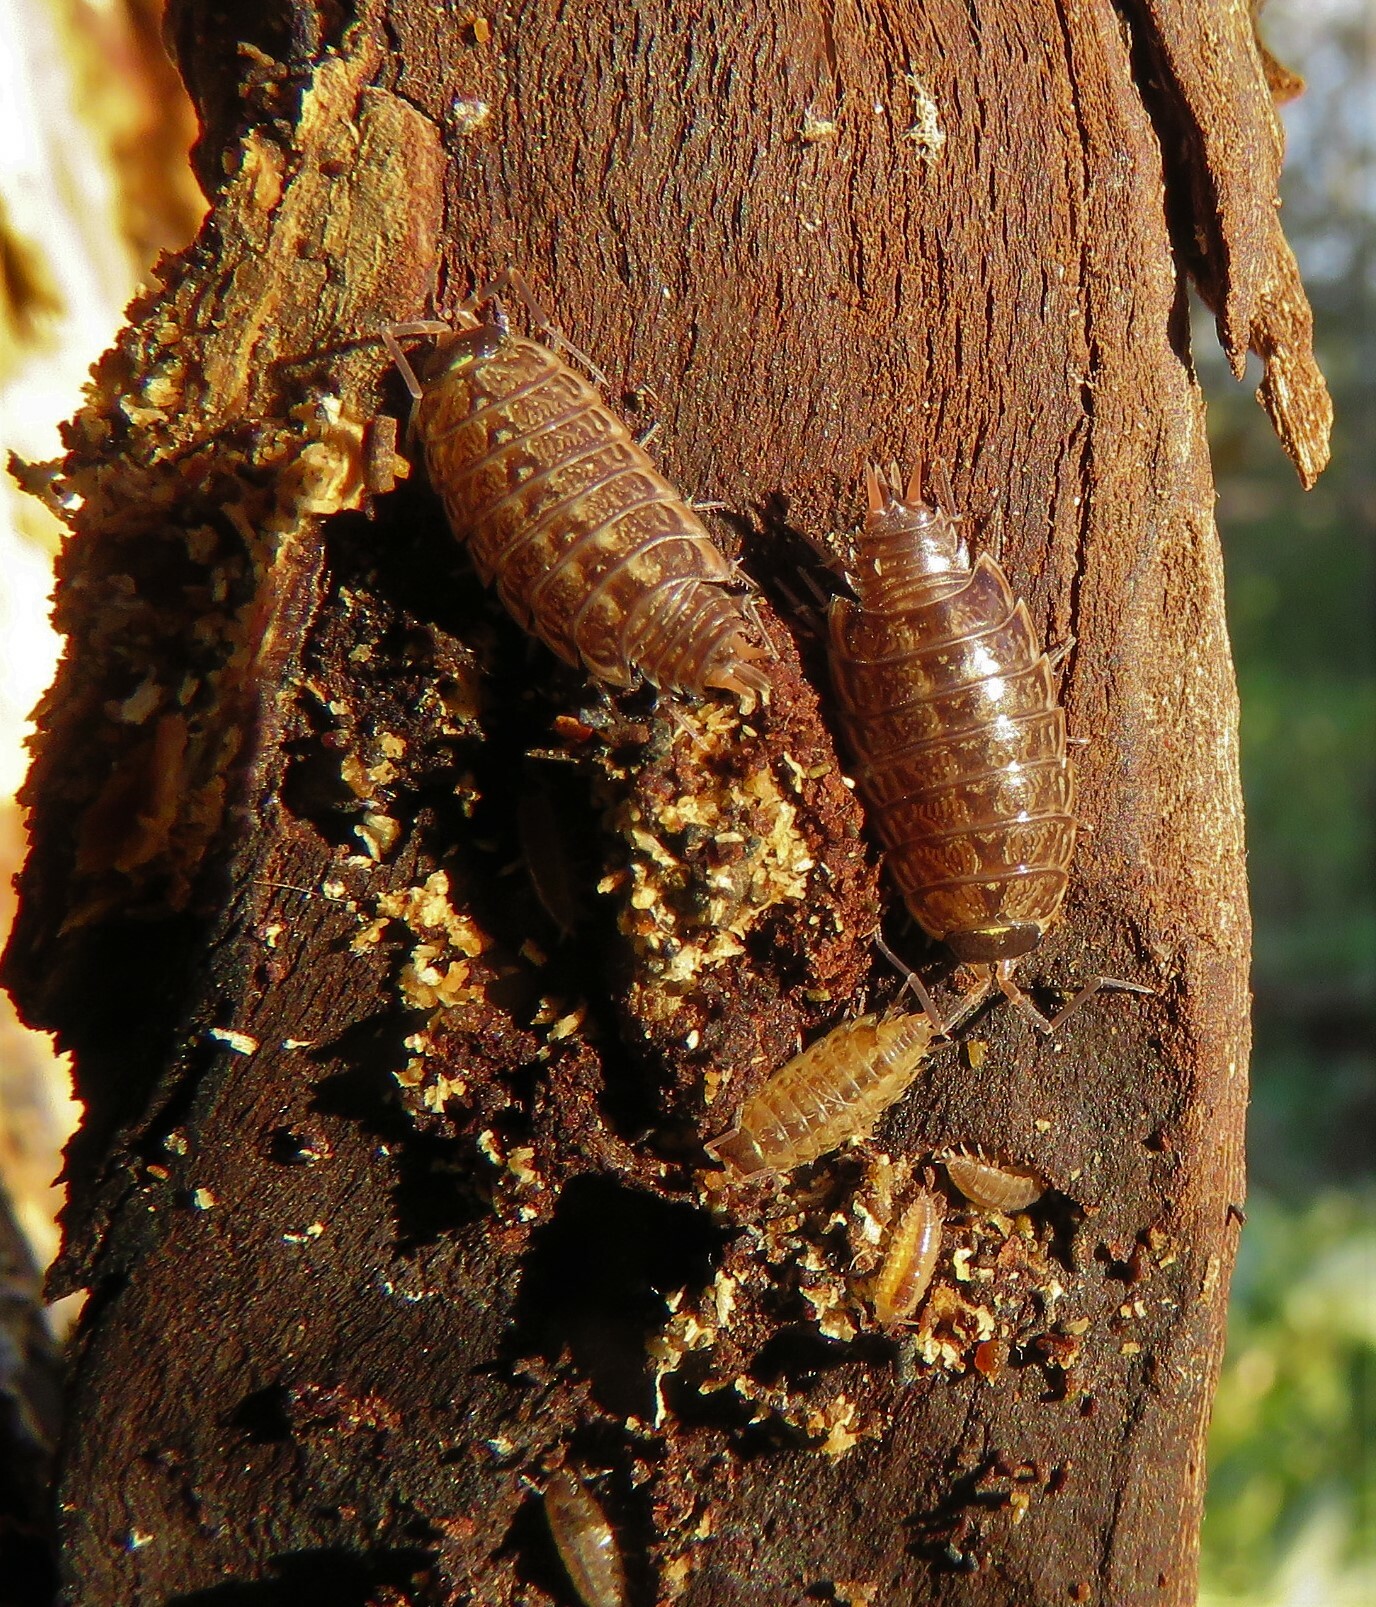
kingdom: Animalia
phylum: Arthropoda
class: Malacostraca
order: Isopoda
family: Philosciidae
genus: Philoscia
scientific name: Philoscia muscorum
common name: Common striped woodlouse
